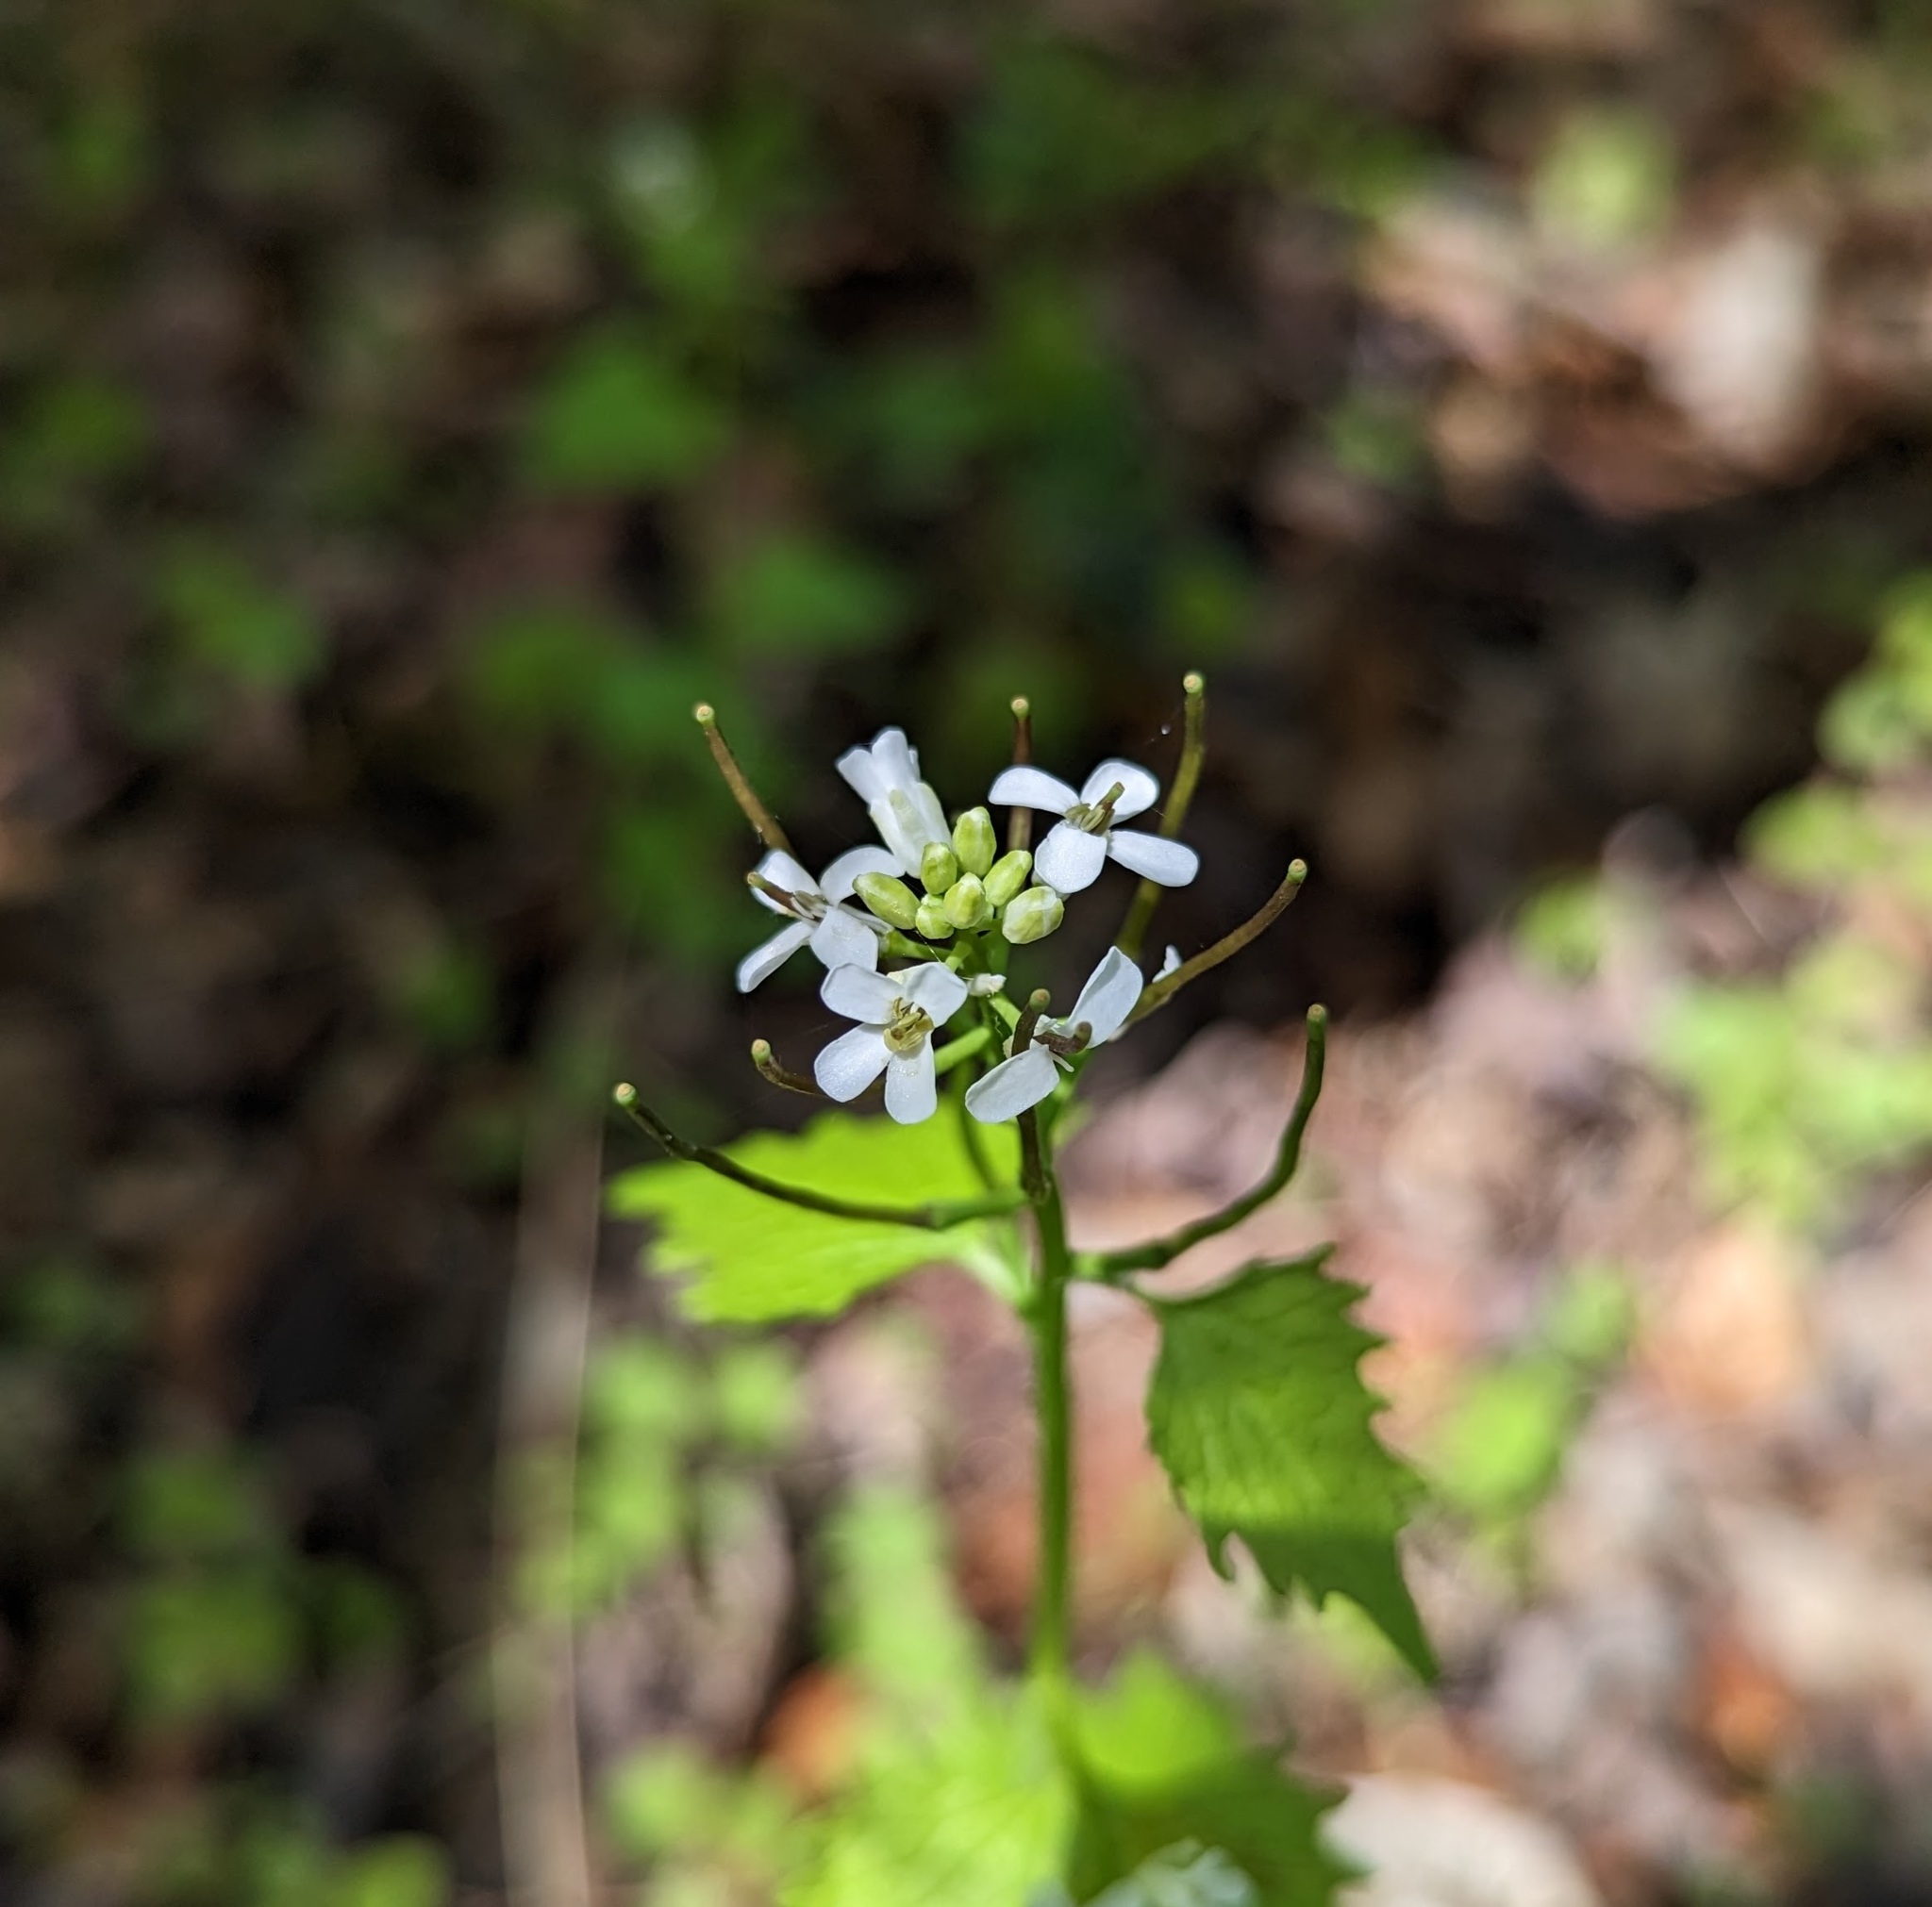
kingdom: Plantae
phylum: Tracheophyta
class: Magnoliopsida
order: Brassicales
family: Brassicaceae
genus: Alliaria
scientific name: Alliaria petiolata
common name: Garlic mustard
